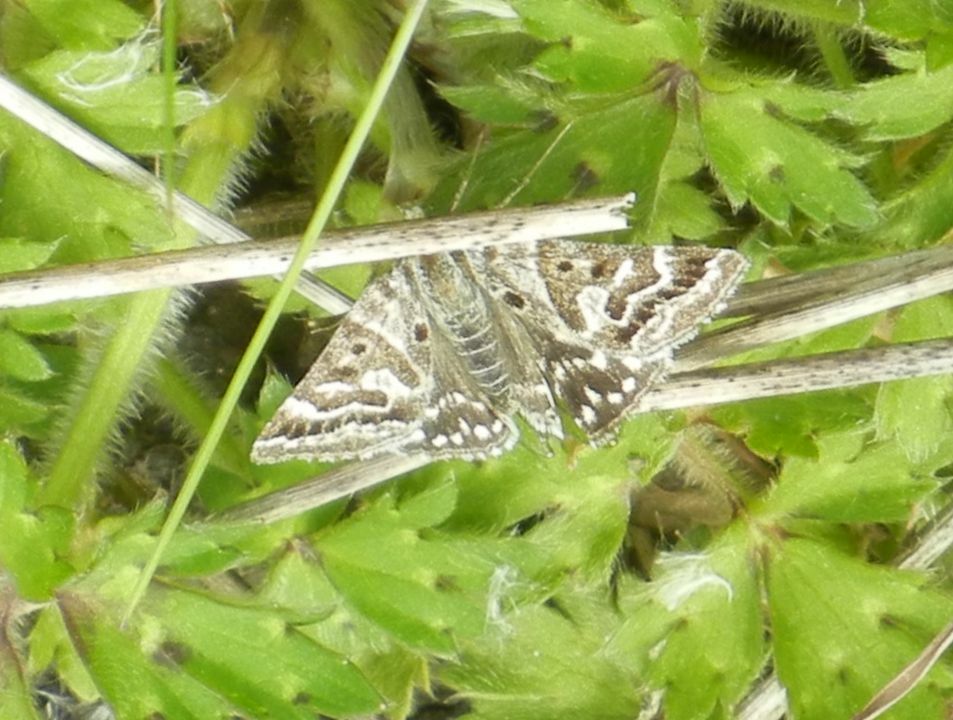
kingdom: Animalia
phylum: Arthropoda
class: Insecta
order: Lepidoptera
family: Erebidae
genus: Callistege
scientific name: Callistege mi
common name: Mother shipton
